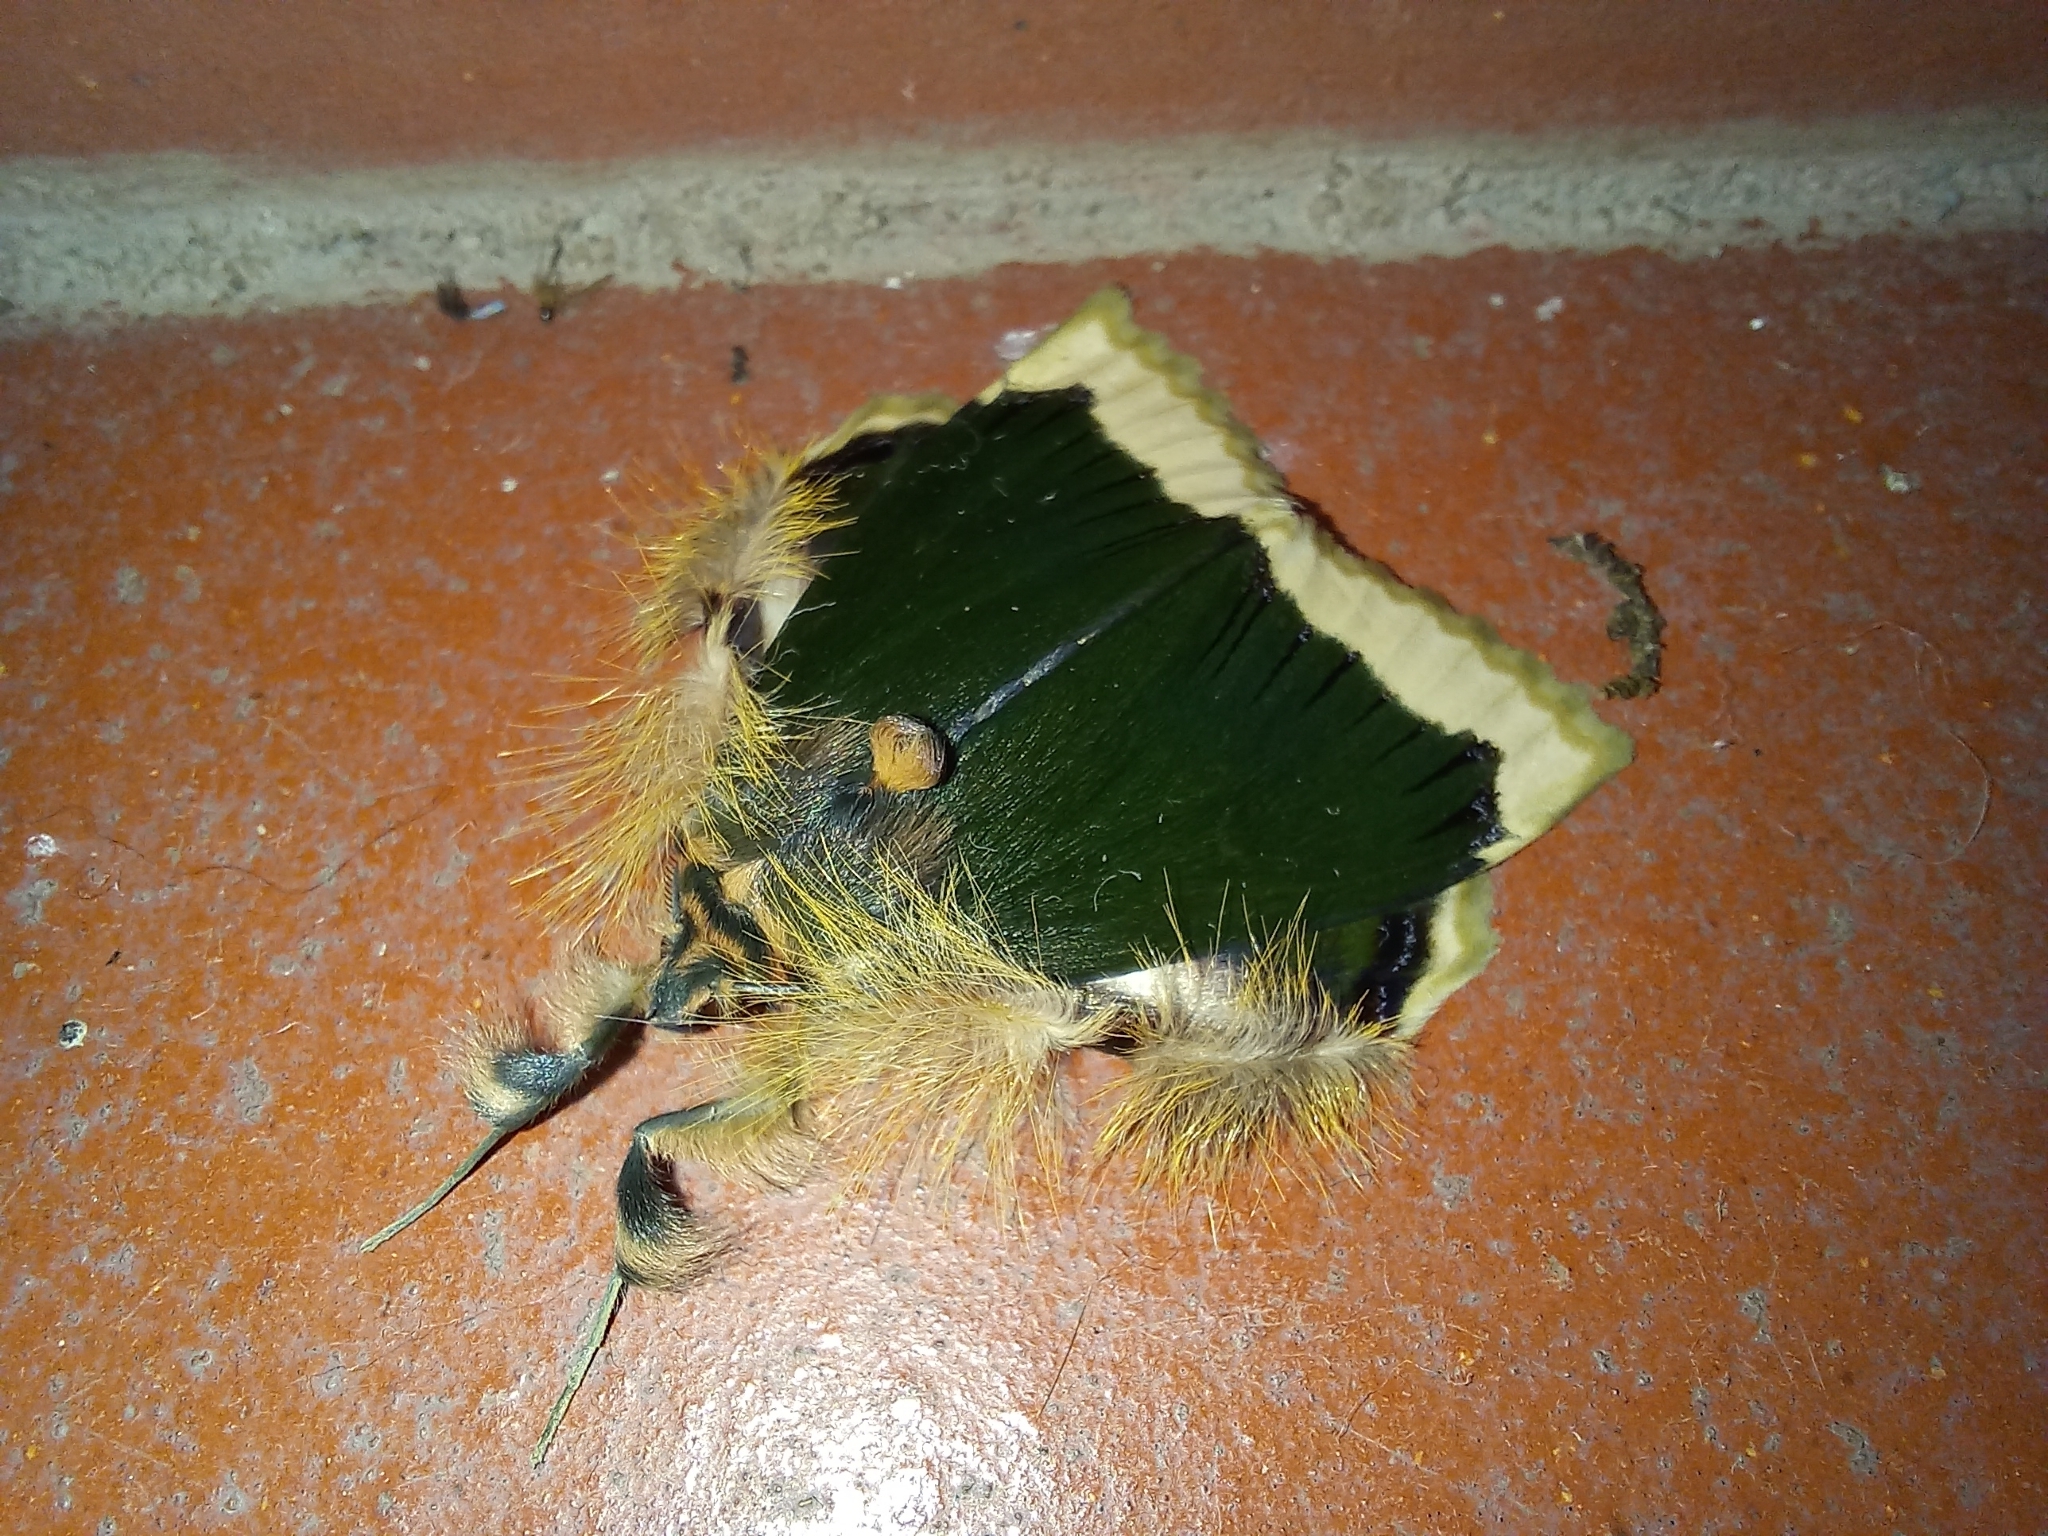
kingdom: Animalia
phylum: Arthropoda
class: Insecta
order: Lepidoptera
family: Erebidae
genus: Ceroctena
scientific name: Ceroctena amynta
